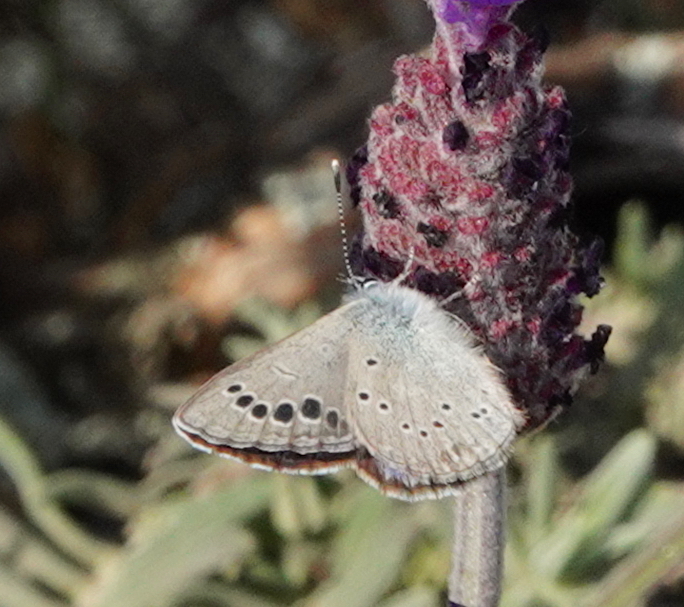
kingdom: Animalia
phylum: Arthropoda
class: Insecta
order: Lepidoptera
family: Lycaenidae
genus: Glaucopsyche
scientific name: Glaucopsyche melanops
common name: Black-eyed blue
